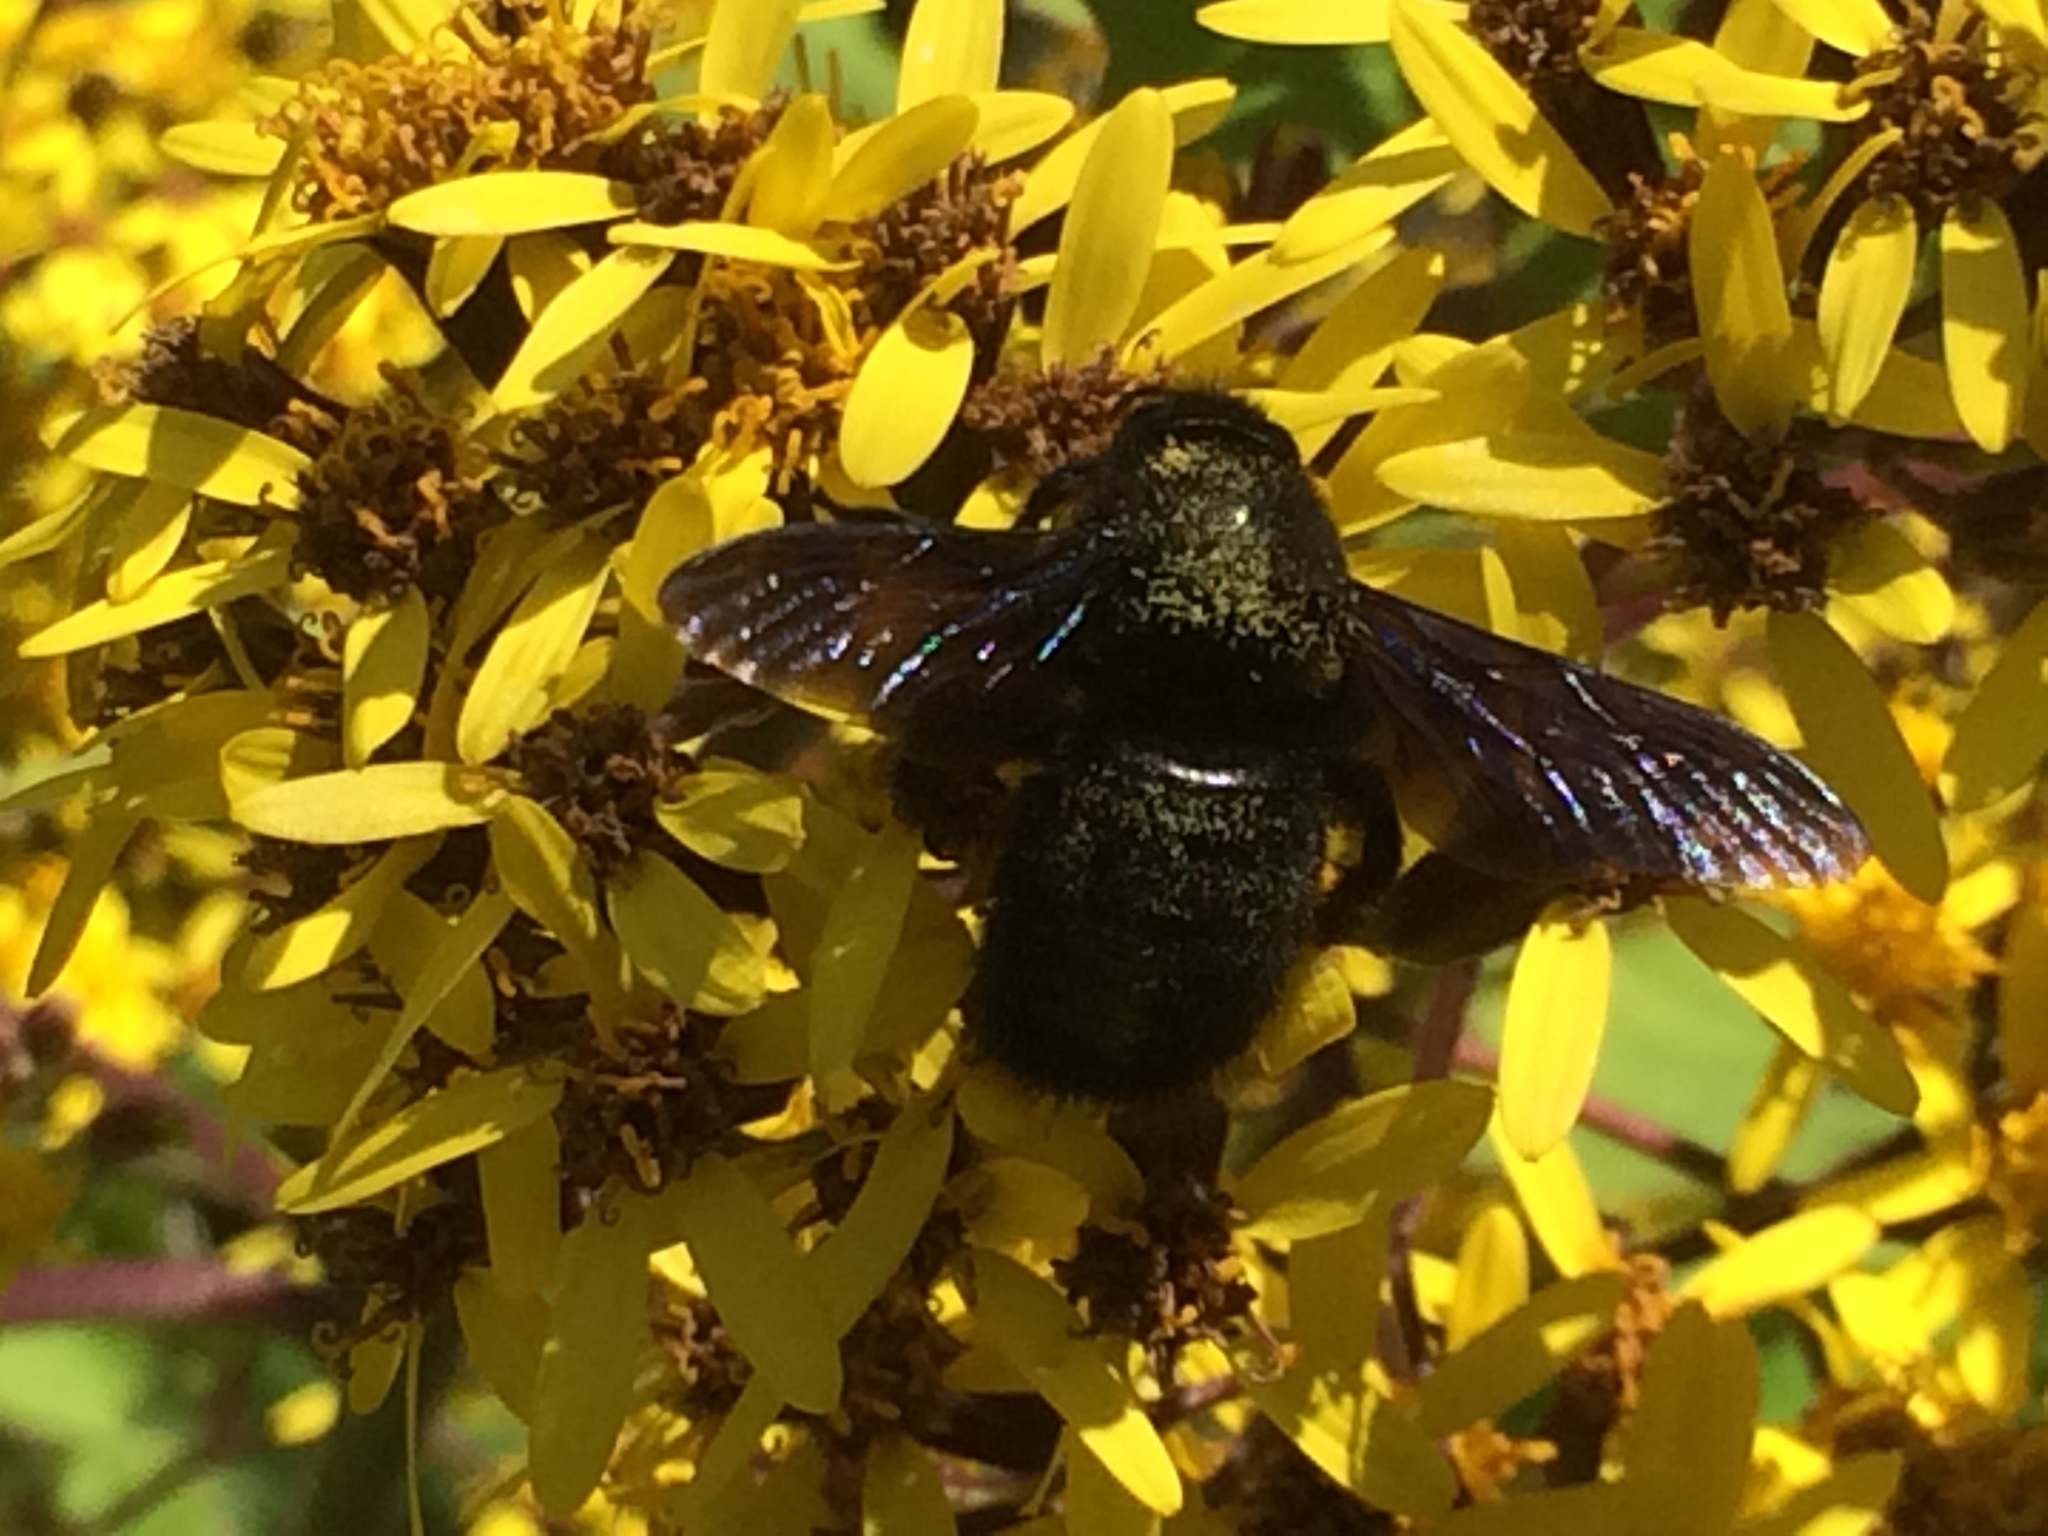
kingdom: Animalia
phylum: Arthropoda
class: Insecta
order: Hymenoptera
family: Apidae
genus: Xylocopa
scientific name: Xylocopa violacea
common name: Violet carpenter bee
